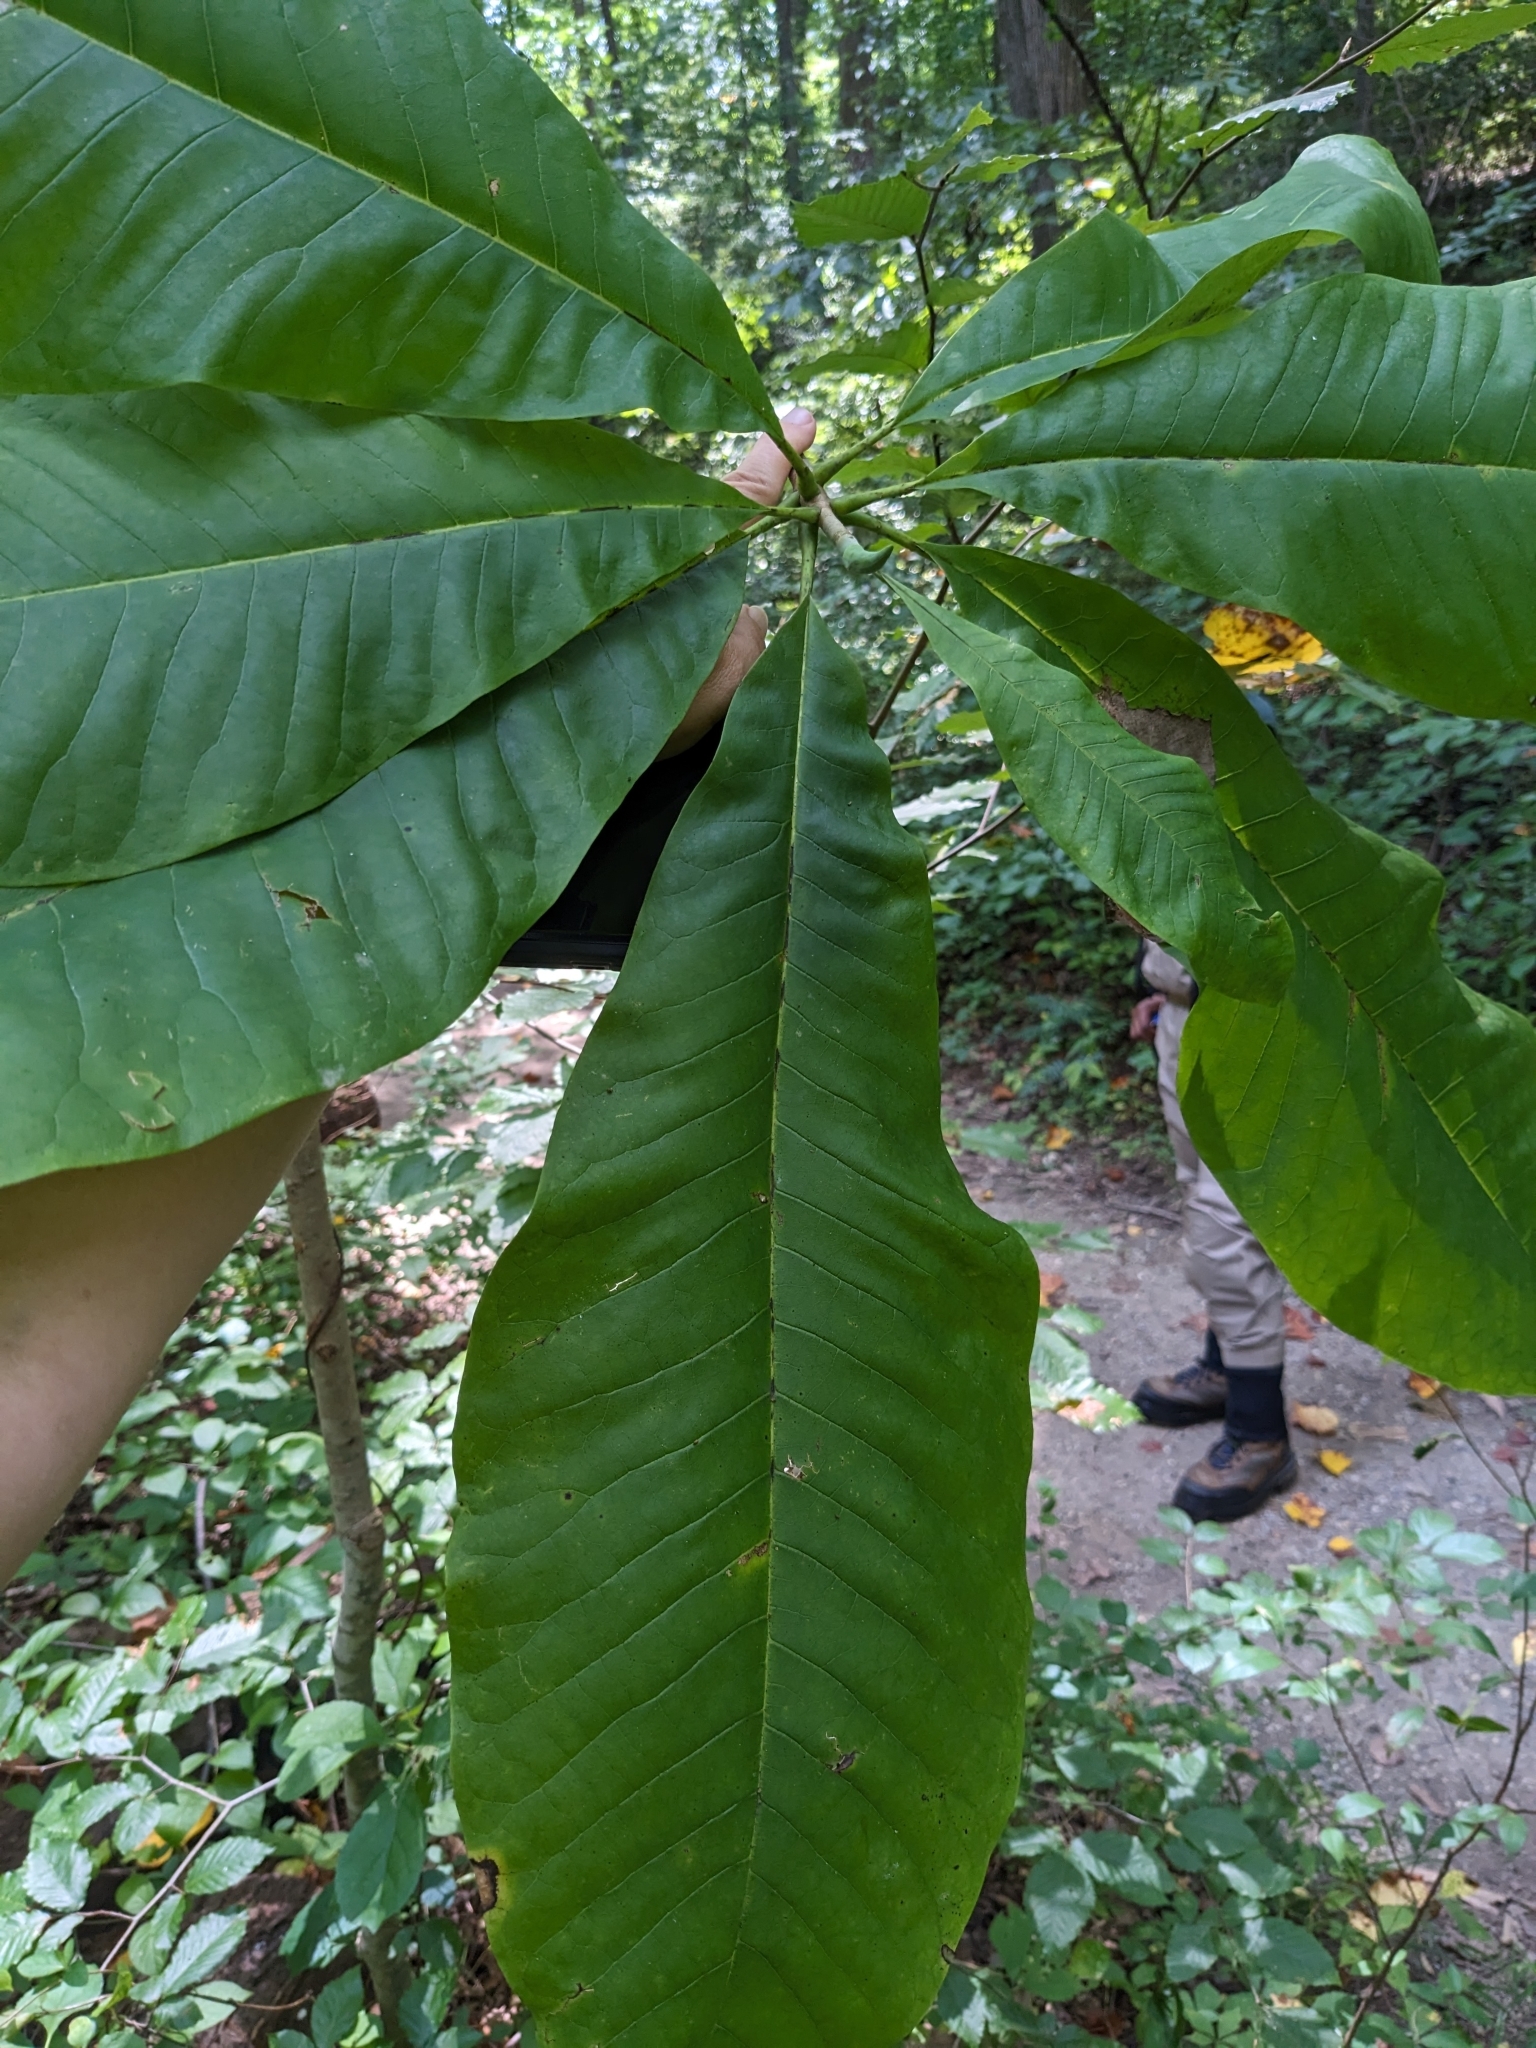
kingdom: Plantae
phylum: Tracheophyta
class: Magnoliopsida
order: Magnoliales
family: Magnoliaceae
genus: Magnolia
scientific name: Magnolia tripetala
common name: Umbrella magnolia
